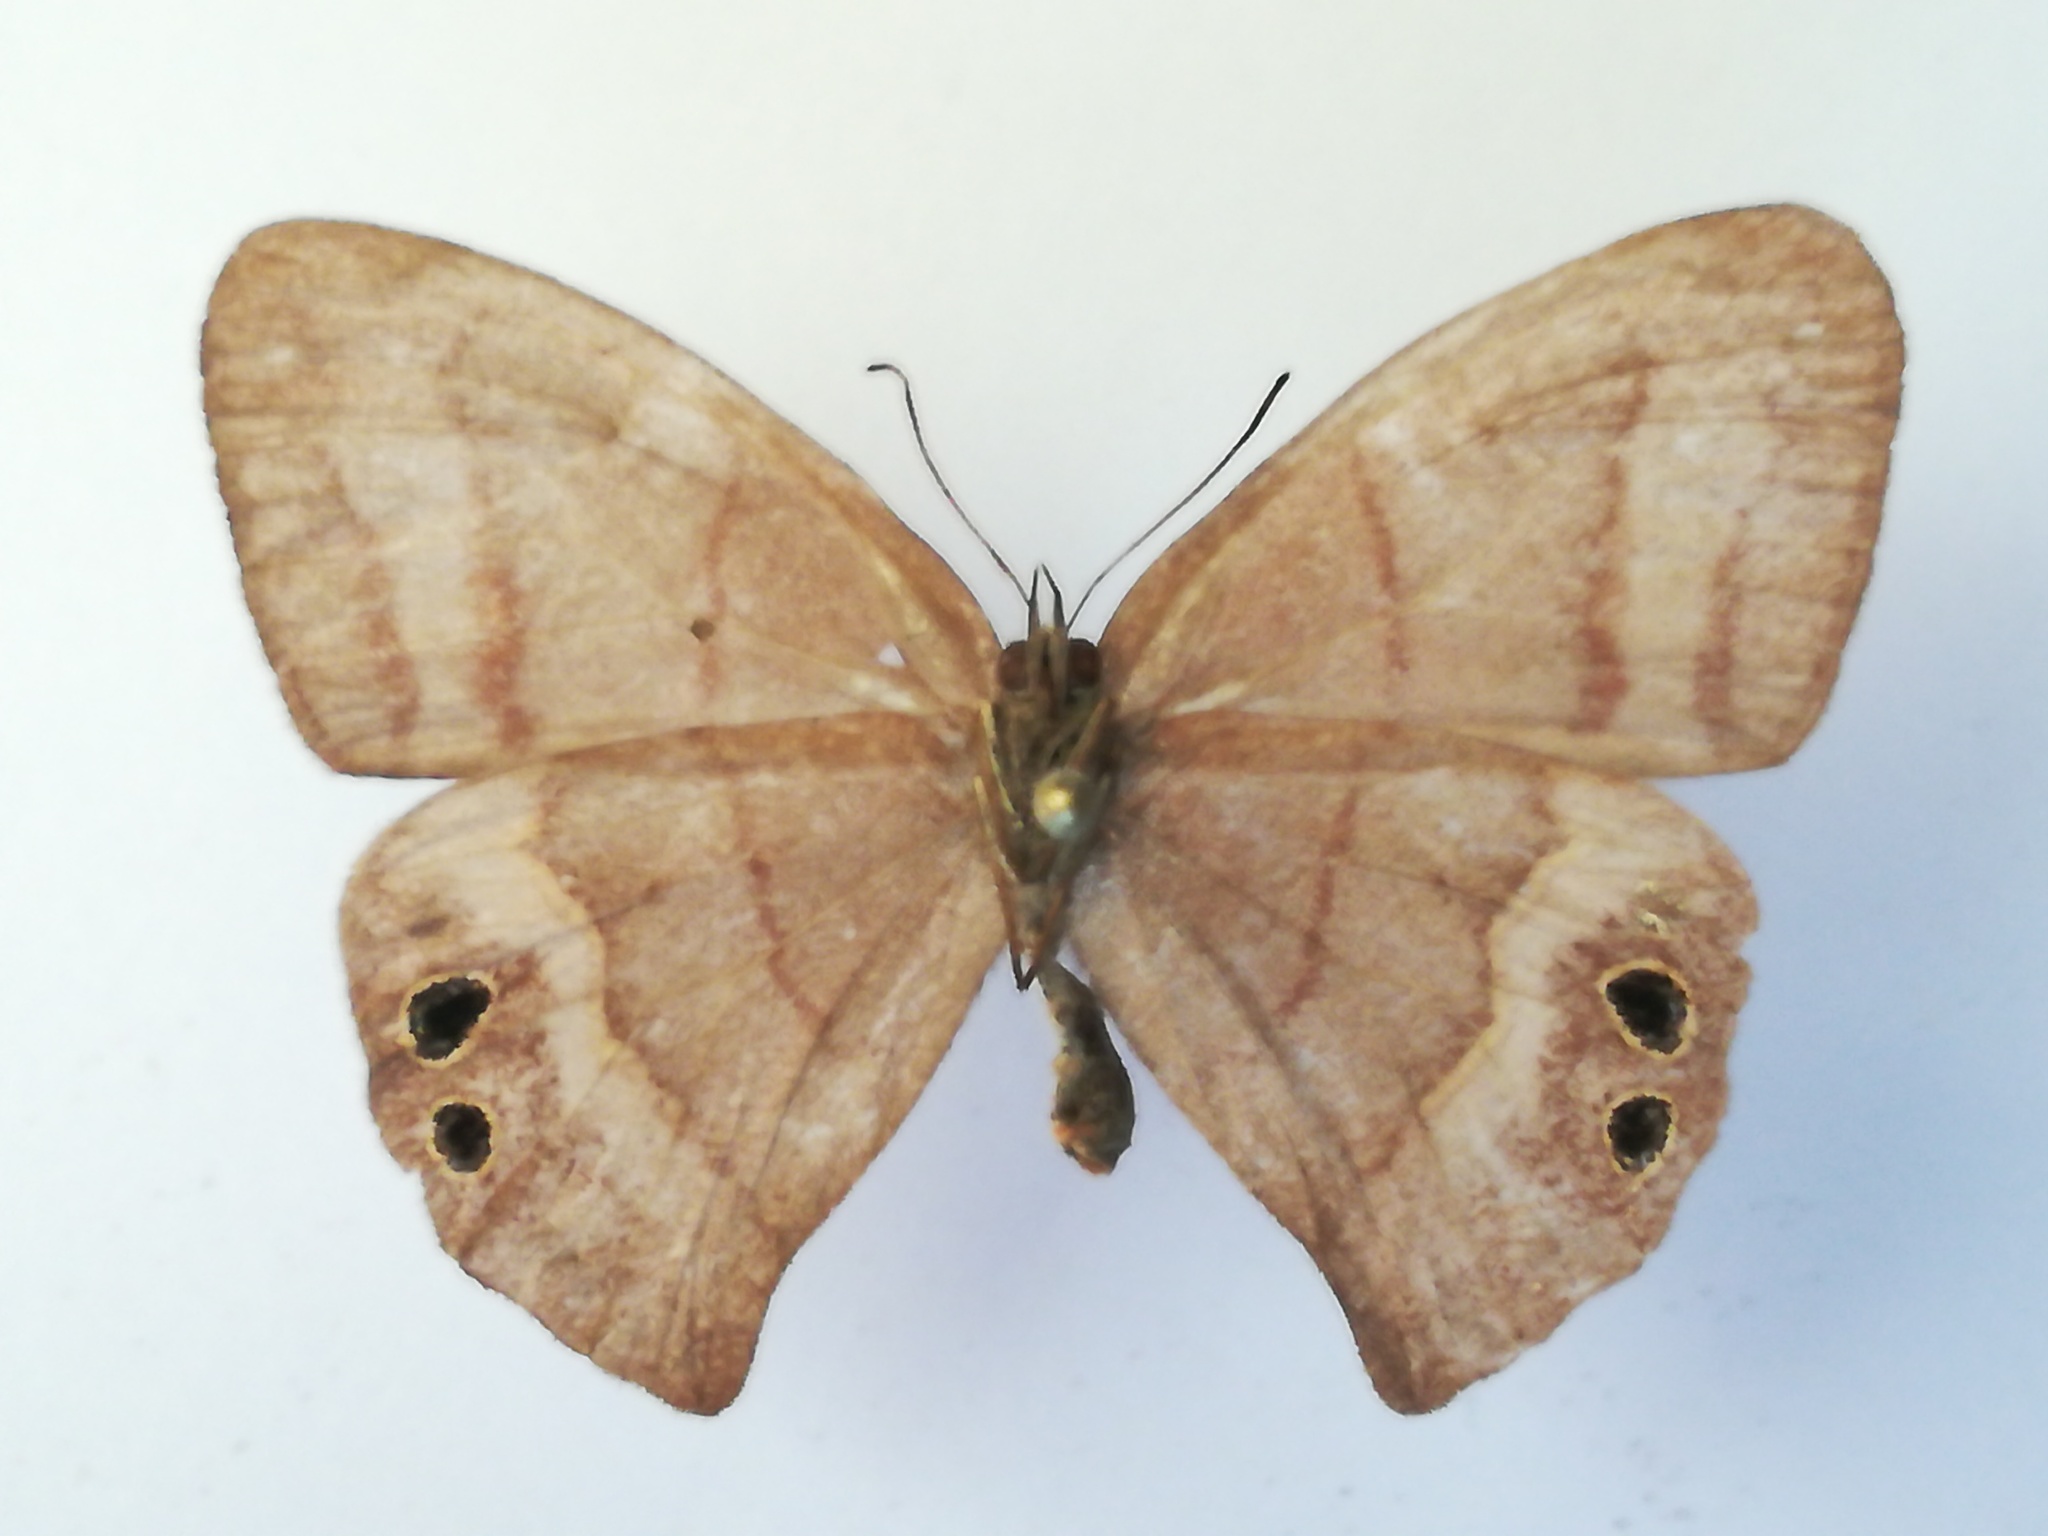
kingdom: Animalia
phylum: Arthropoda
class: Insecta
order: Lepidoptera
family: Nymphalidae
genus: Euptychia
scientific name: Euptychia
